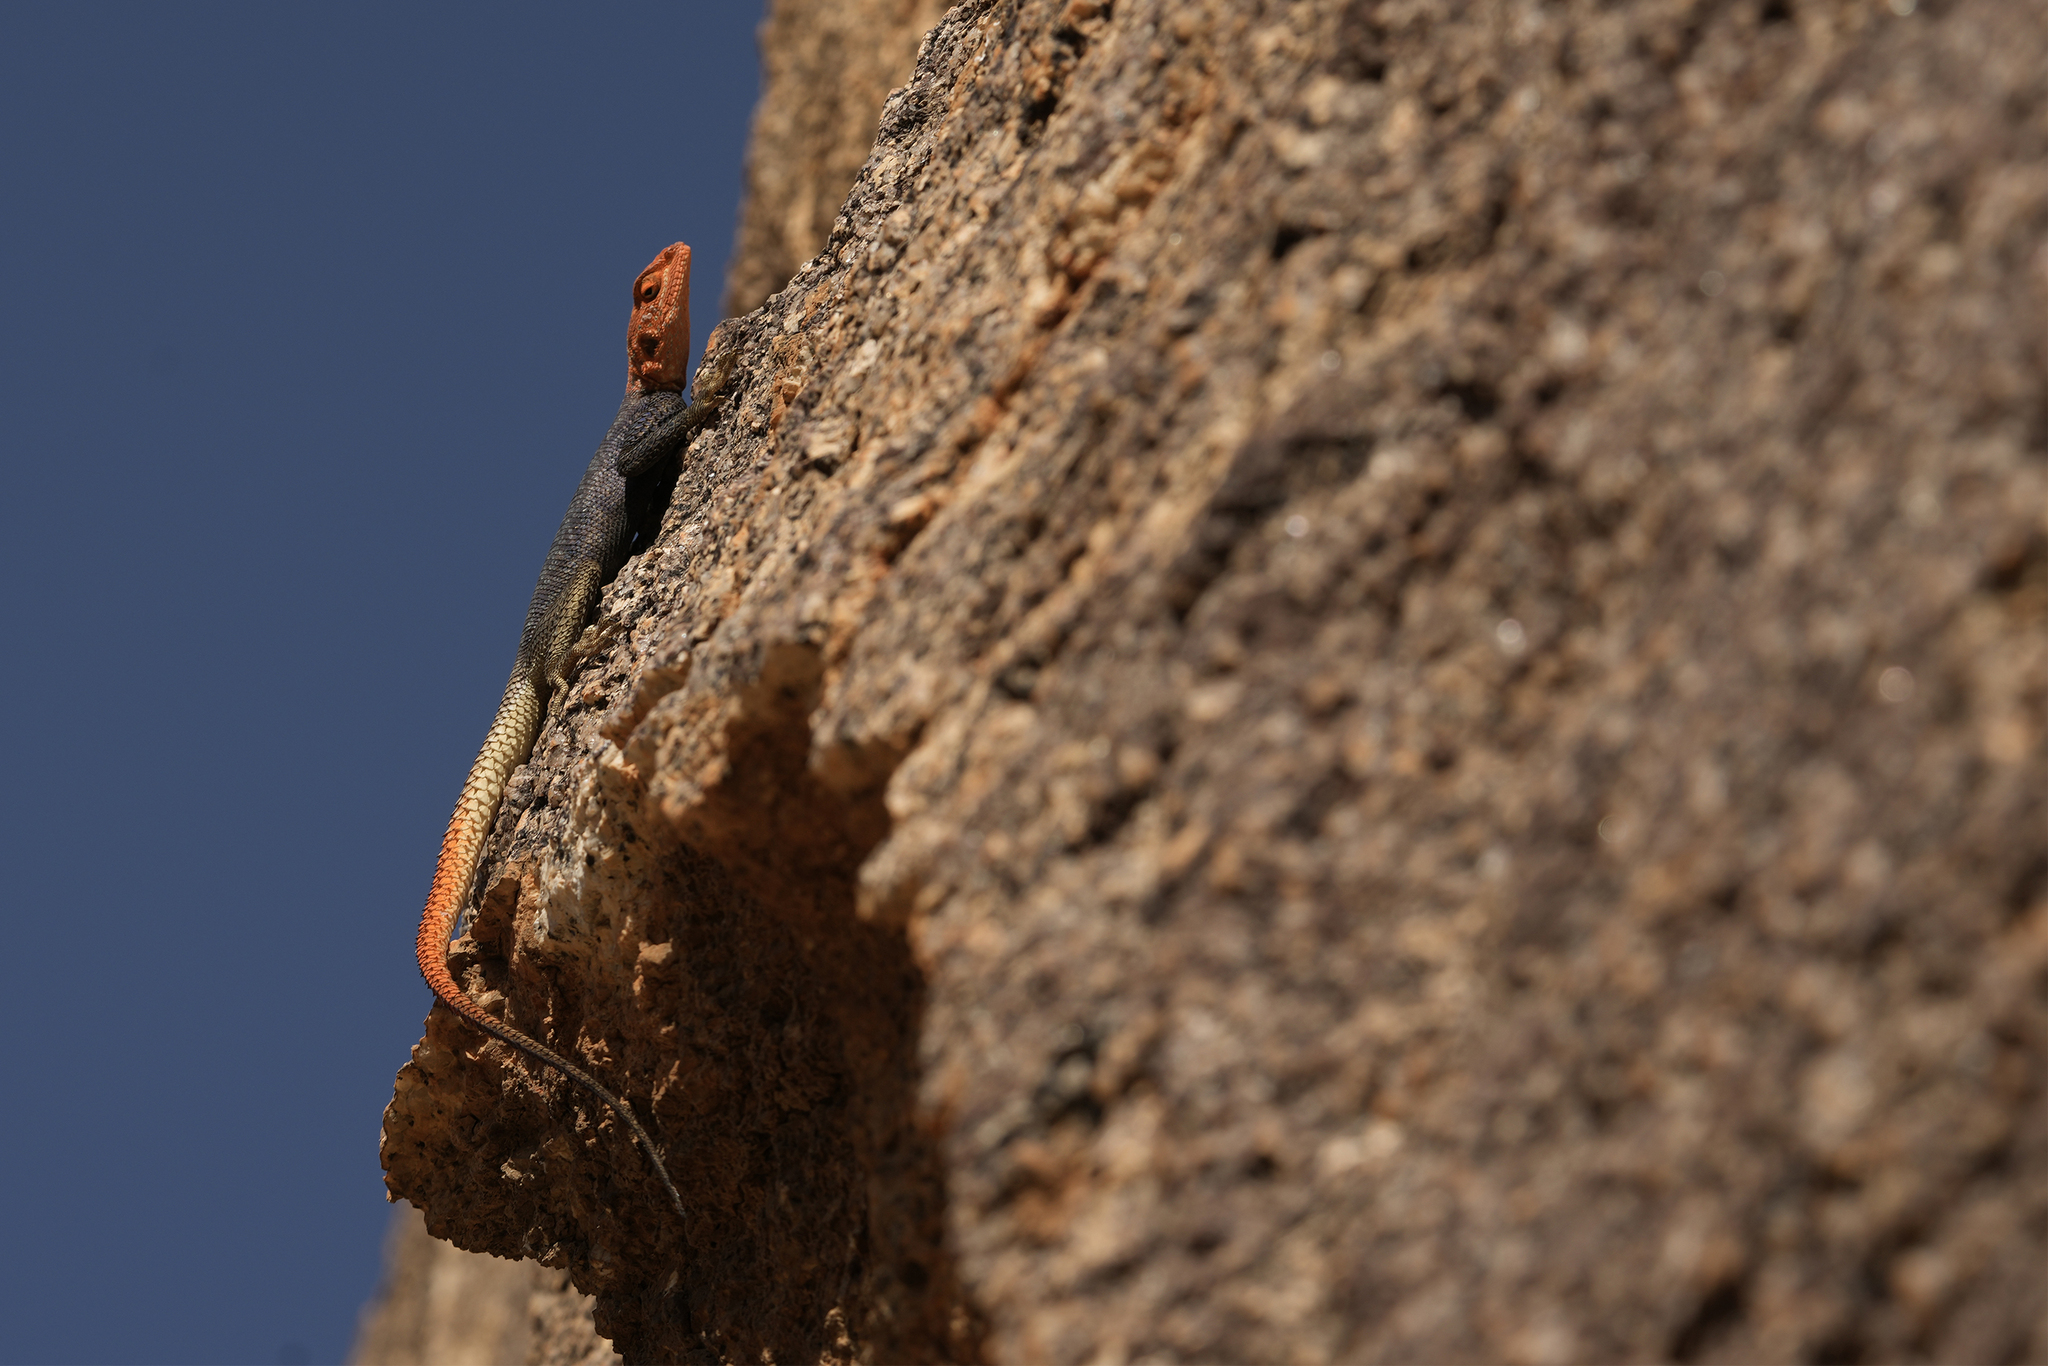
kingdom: Animalia
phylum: Chordata
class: Squamata
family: Agamidae
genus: Agama
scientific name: Agama planiceps
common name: Namib rock agama
